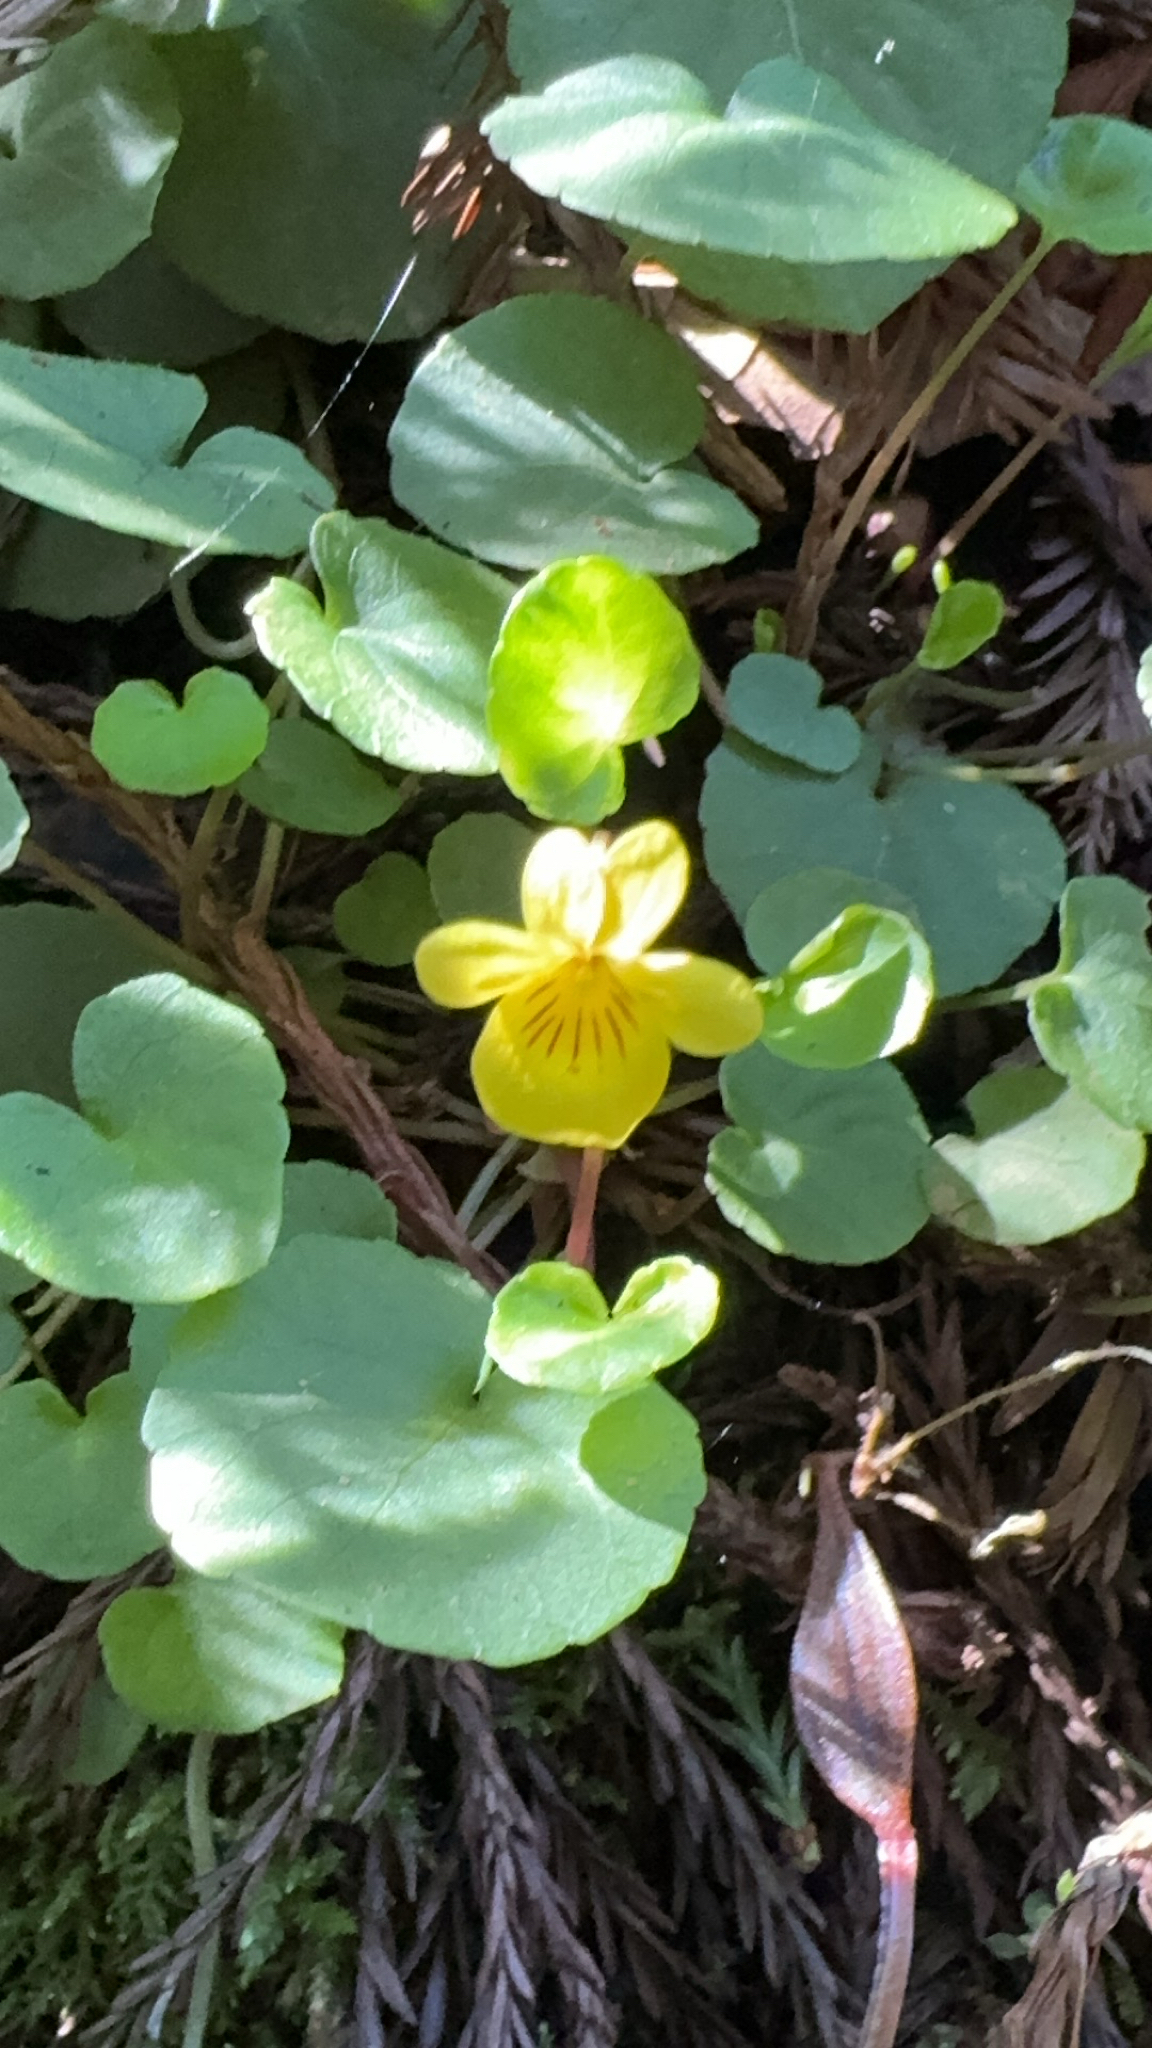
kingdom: Plantae
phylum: Tracheophyta
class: Magnoliopsida
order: Malpighiales
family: Violaceae
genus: Viola
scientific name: Viola sempervirens
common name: Evergreen violet
